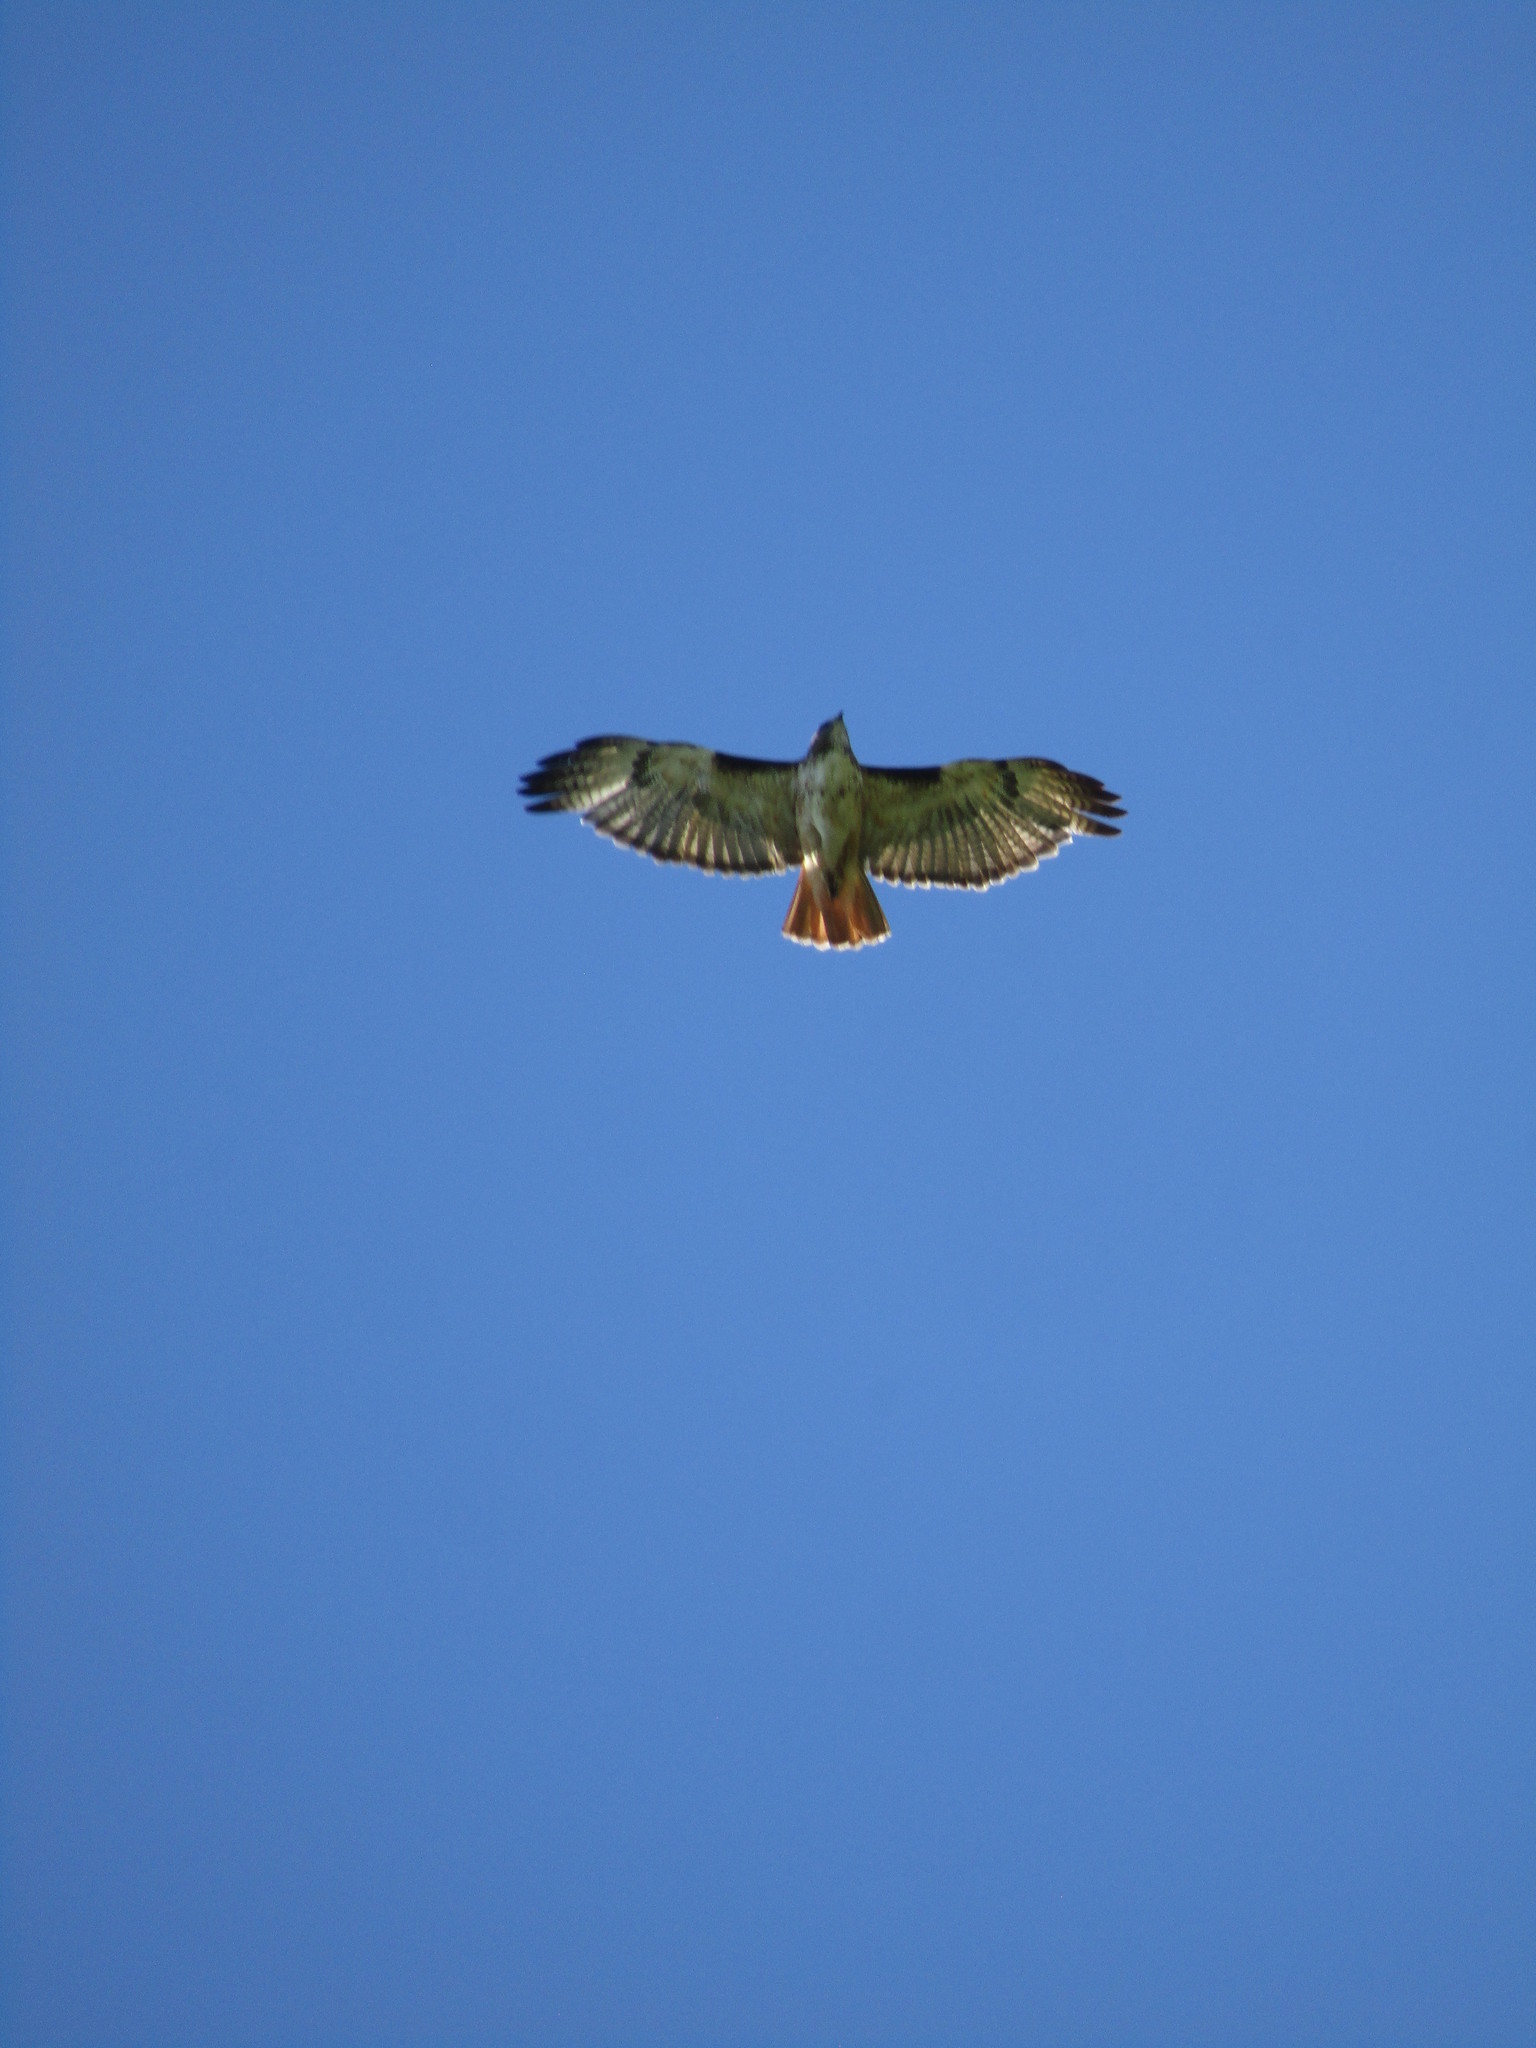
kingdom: Animalia
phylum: Chordata
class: Aves
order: Accipitriformes
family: Accipitridae
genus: Buteo
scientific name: Buteo jamaicensis
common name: Red-tailed hawk
